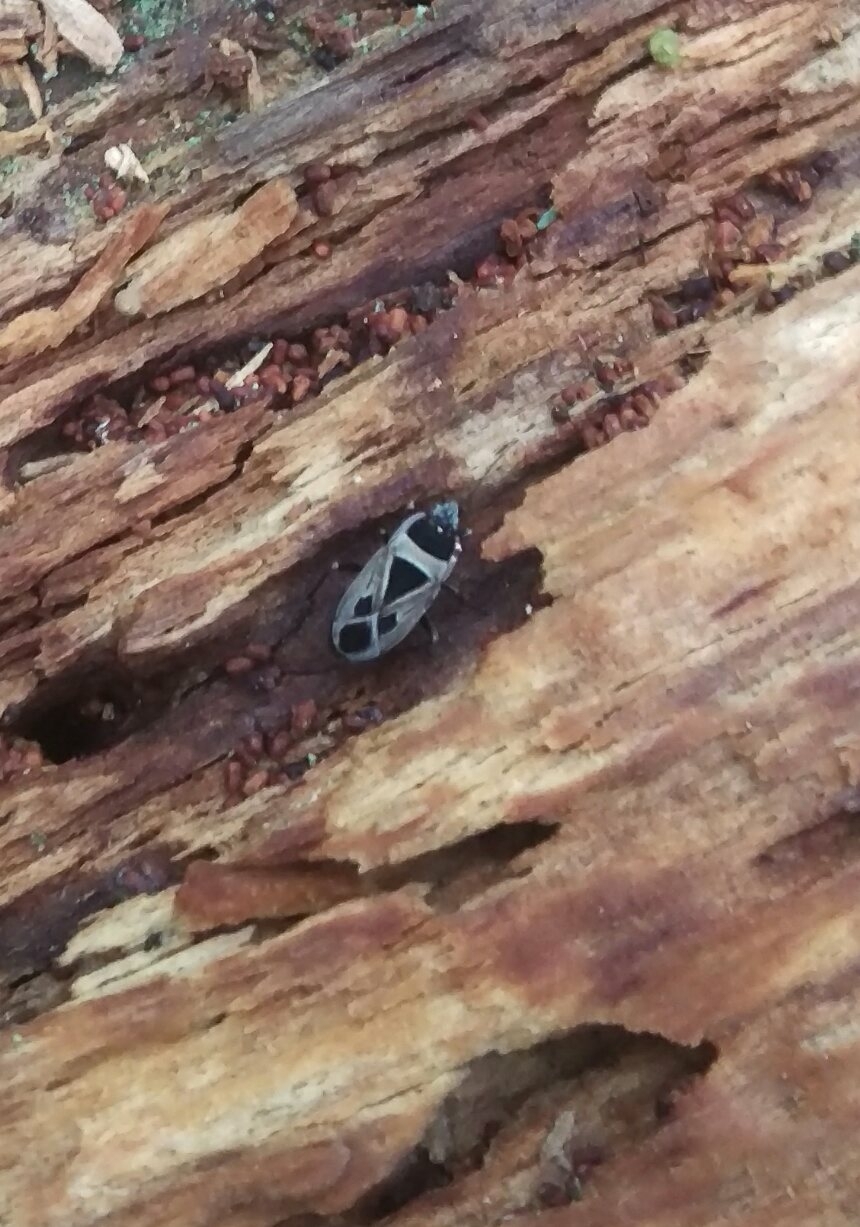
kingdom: Animalia
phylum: Arthropoda
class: Insecta
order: Hemiptera
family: Rhyparochromidae
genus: Xanthochilus
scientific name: Xanthochilus saturnius
